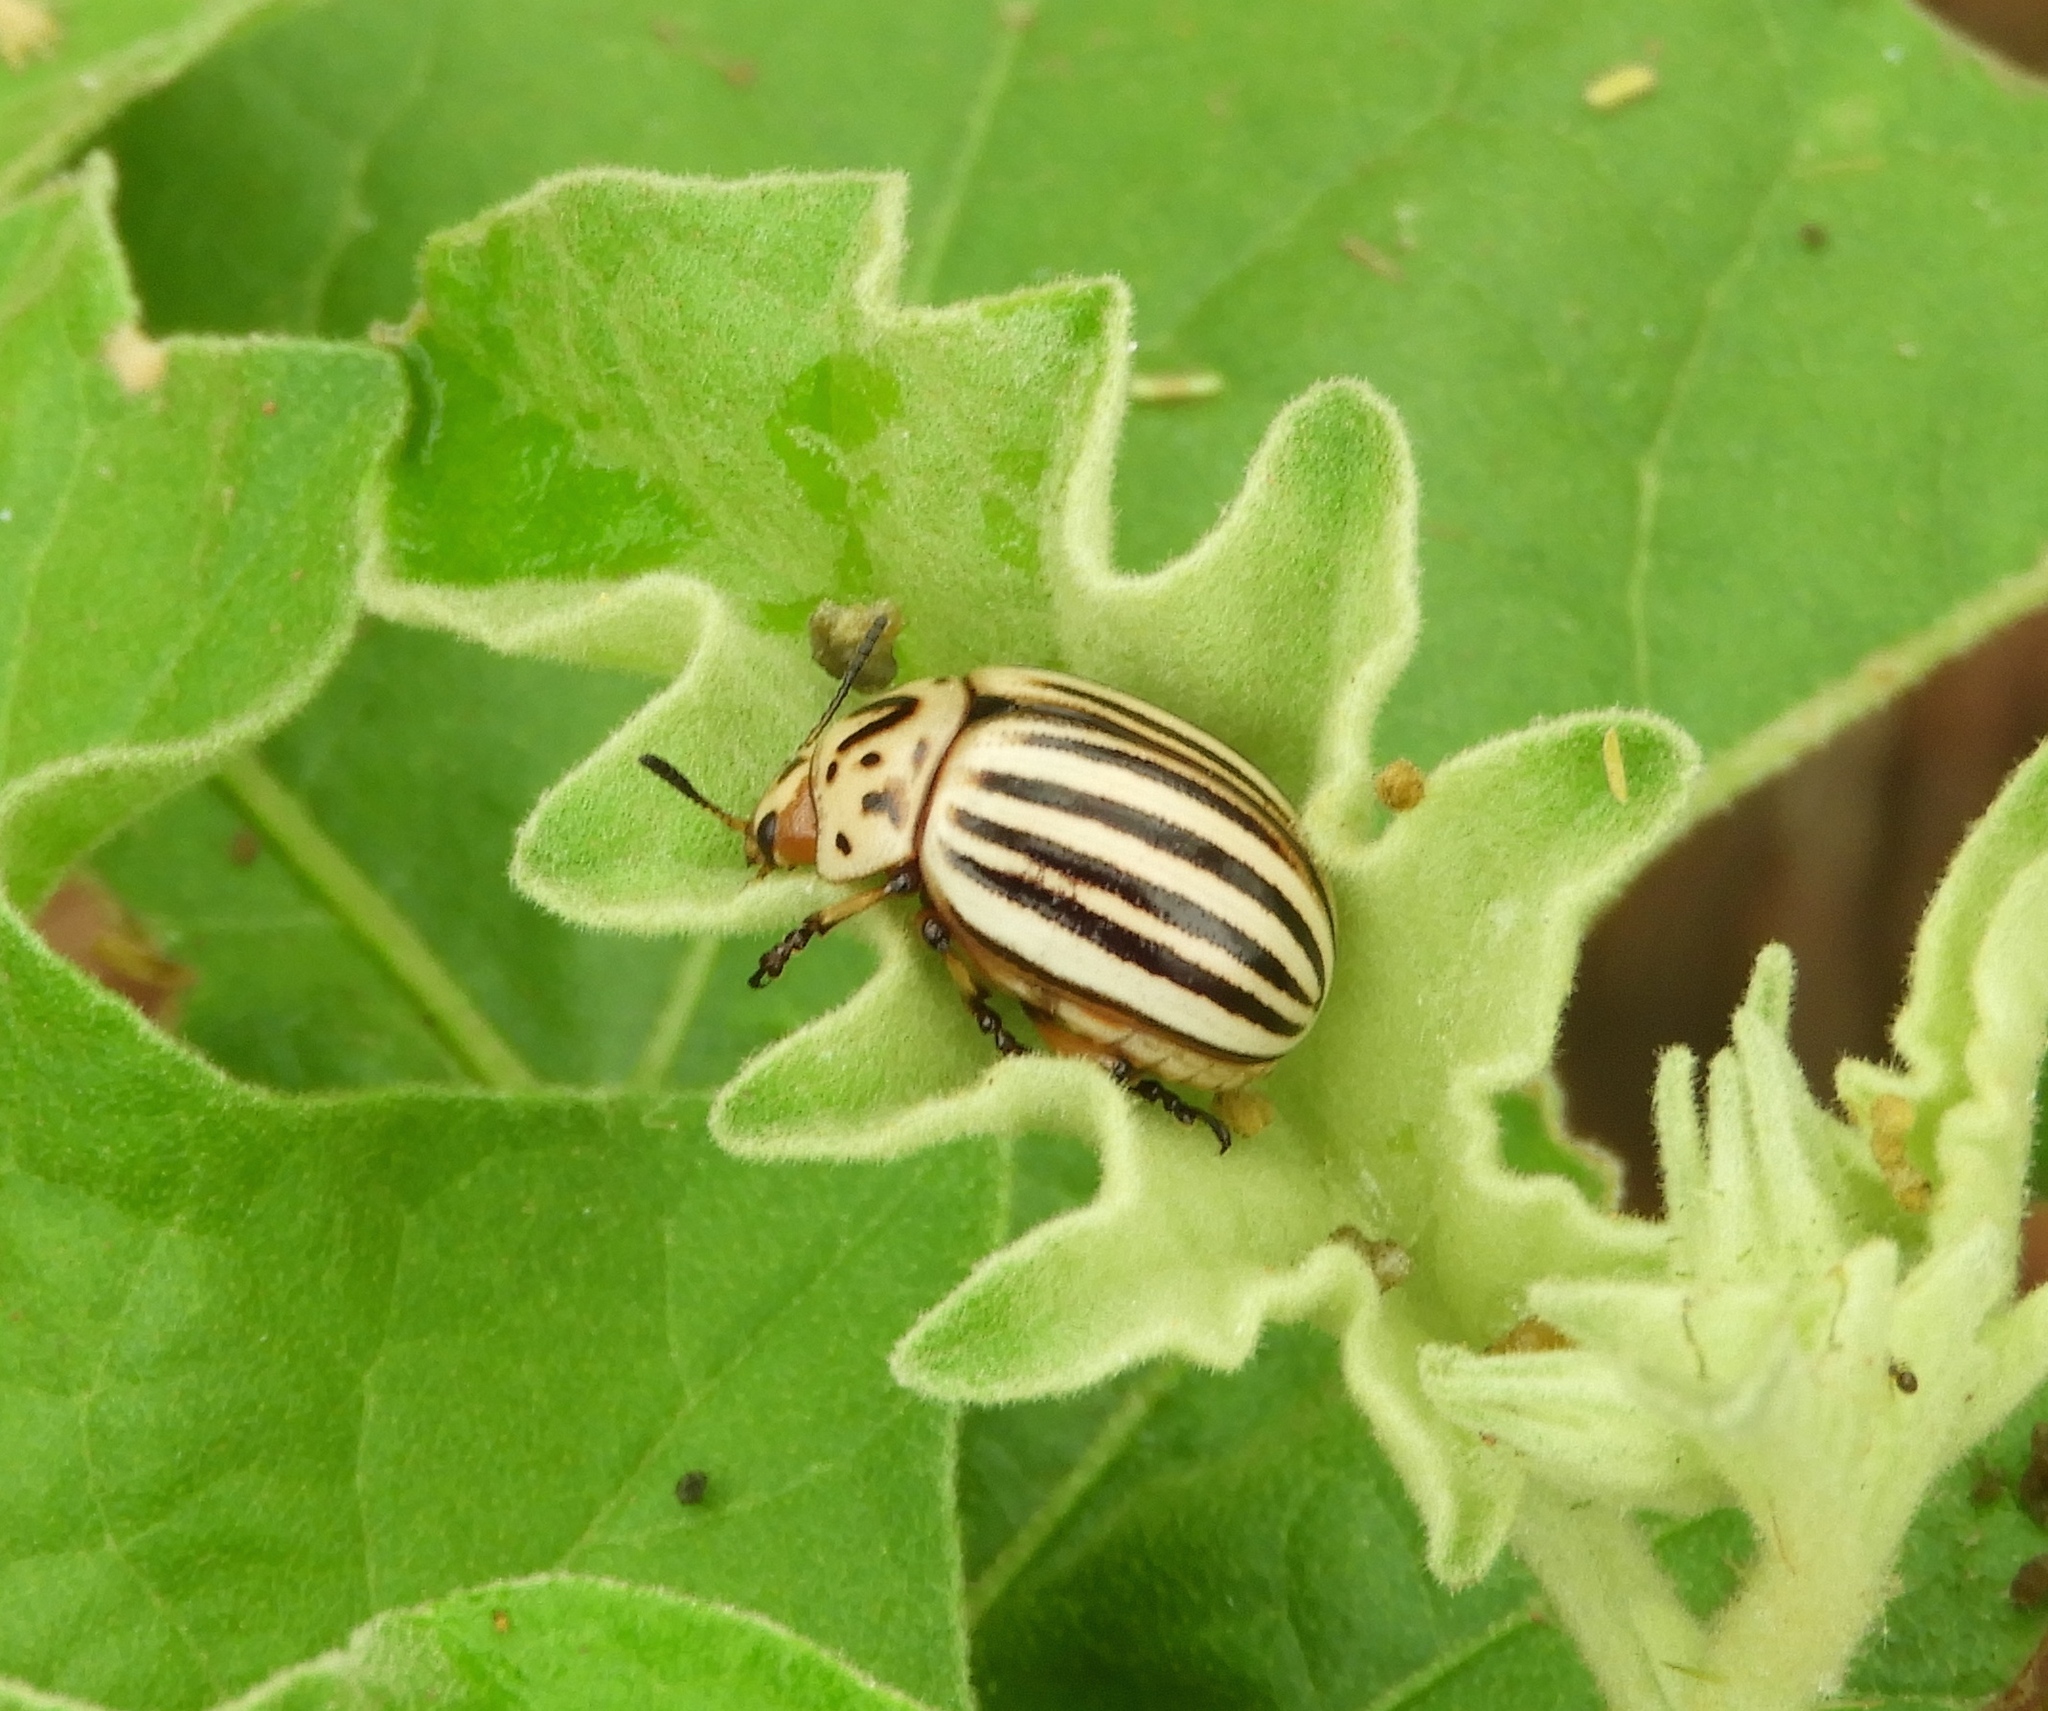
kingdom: Animalia
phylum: Arthropoda
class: Insecta
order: Coleoptera
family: Chrysomelidae
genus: Leptinotarsa
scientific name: Leptinotarsa decemlineata
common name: Colorado potato beetle
